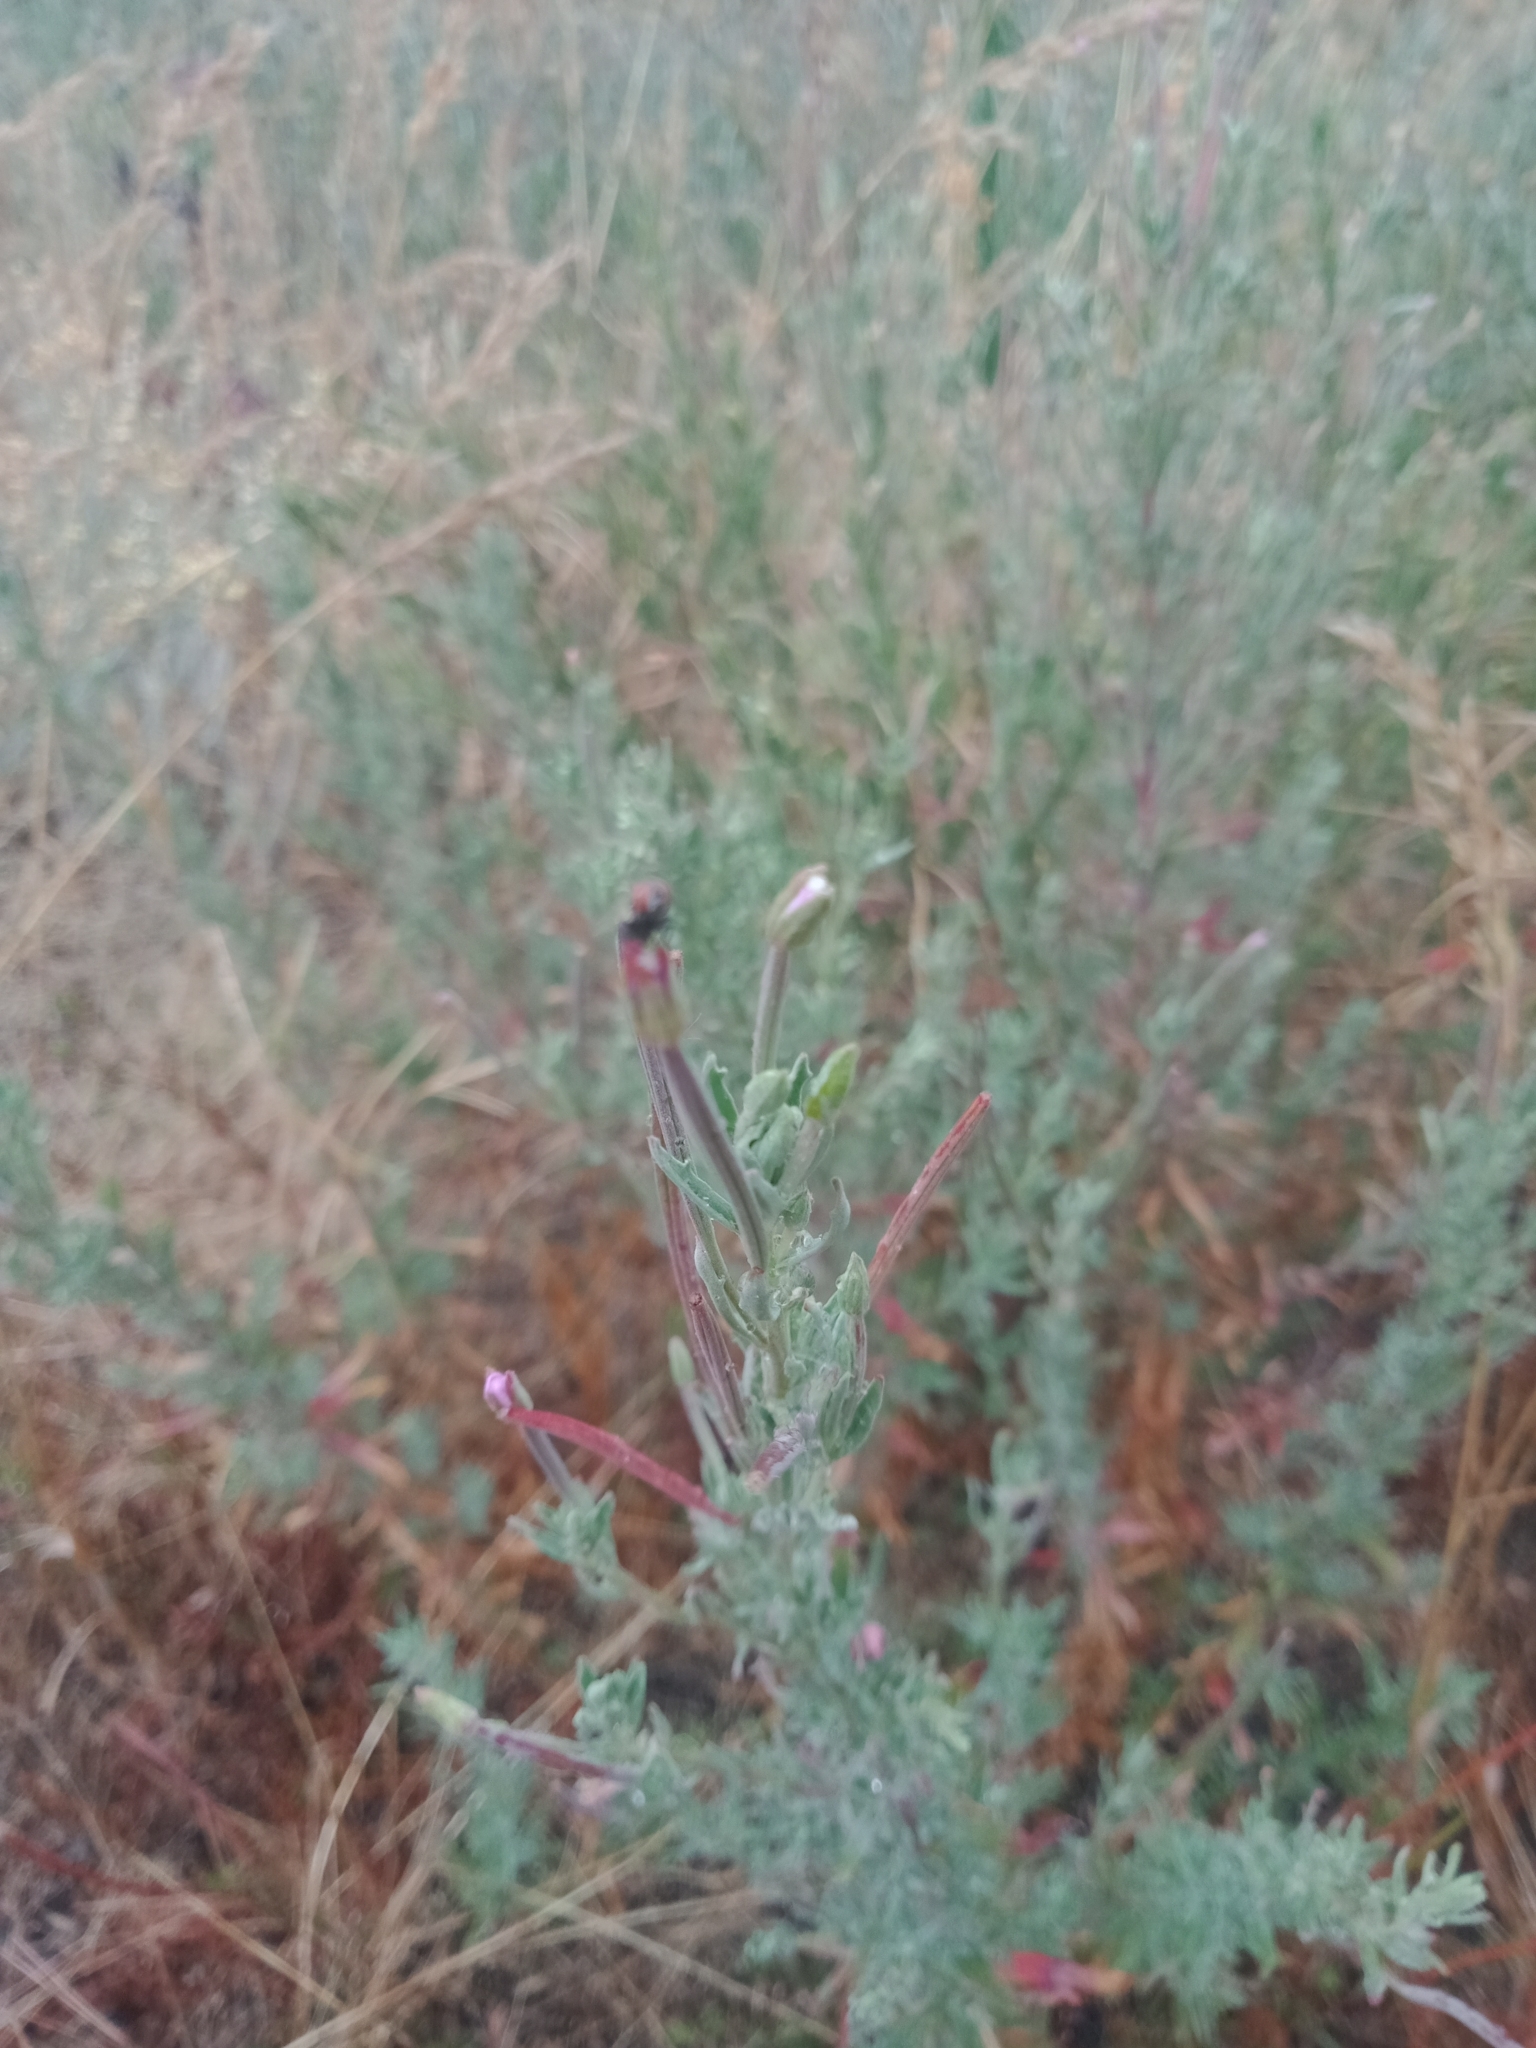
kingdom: Plantae
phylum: Tracheophyta
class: Magnoliopsida
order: Myrtales
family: Onagraceae
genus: Epilobium
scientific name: Epilobium hirtigerum
